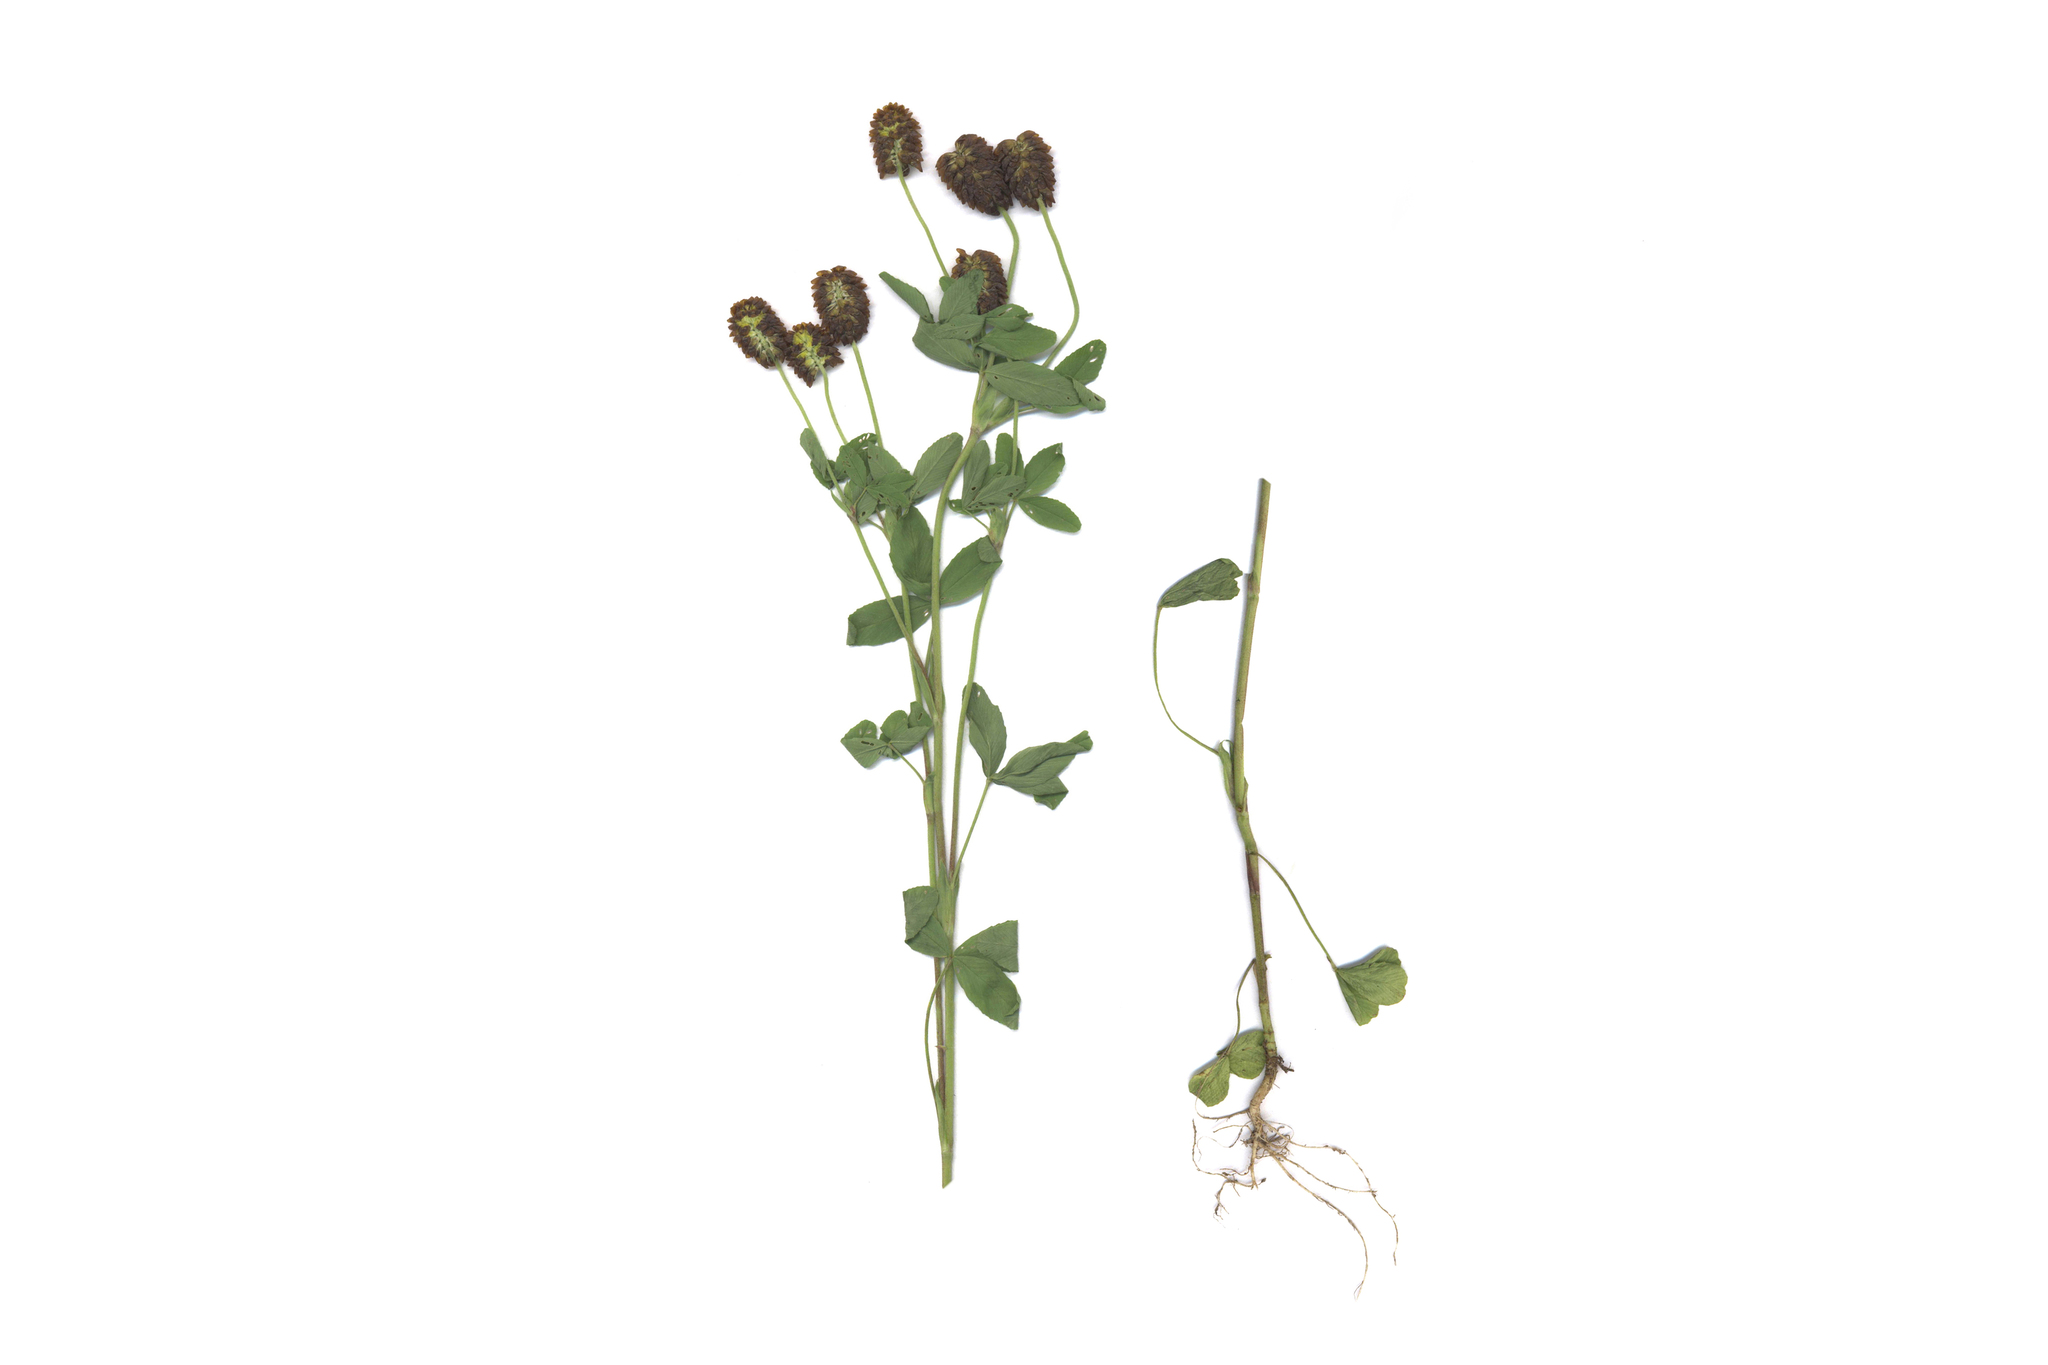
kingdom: Plantae
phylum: Tracheophyta
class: Magnoliopsida
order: Fabales
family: Fabaceae
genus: Trifolium
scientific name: Trifolium spadiceum
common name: Brown moor clover
